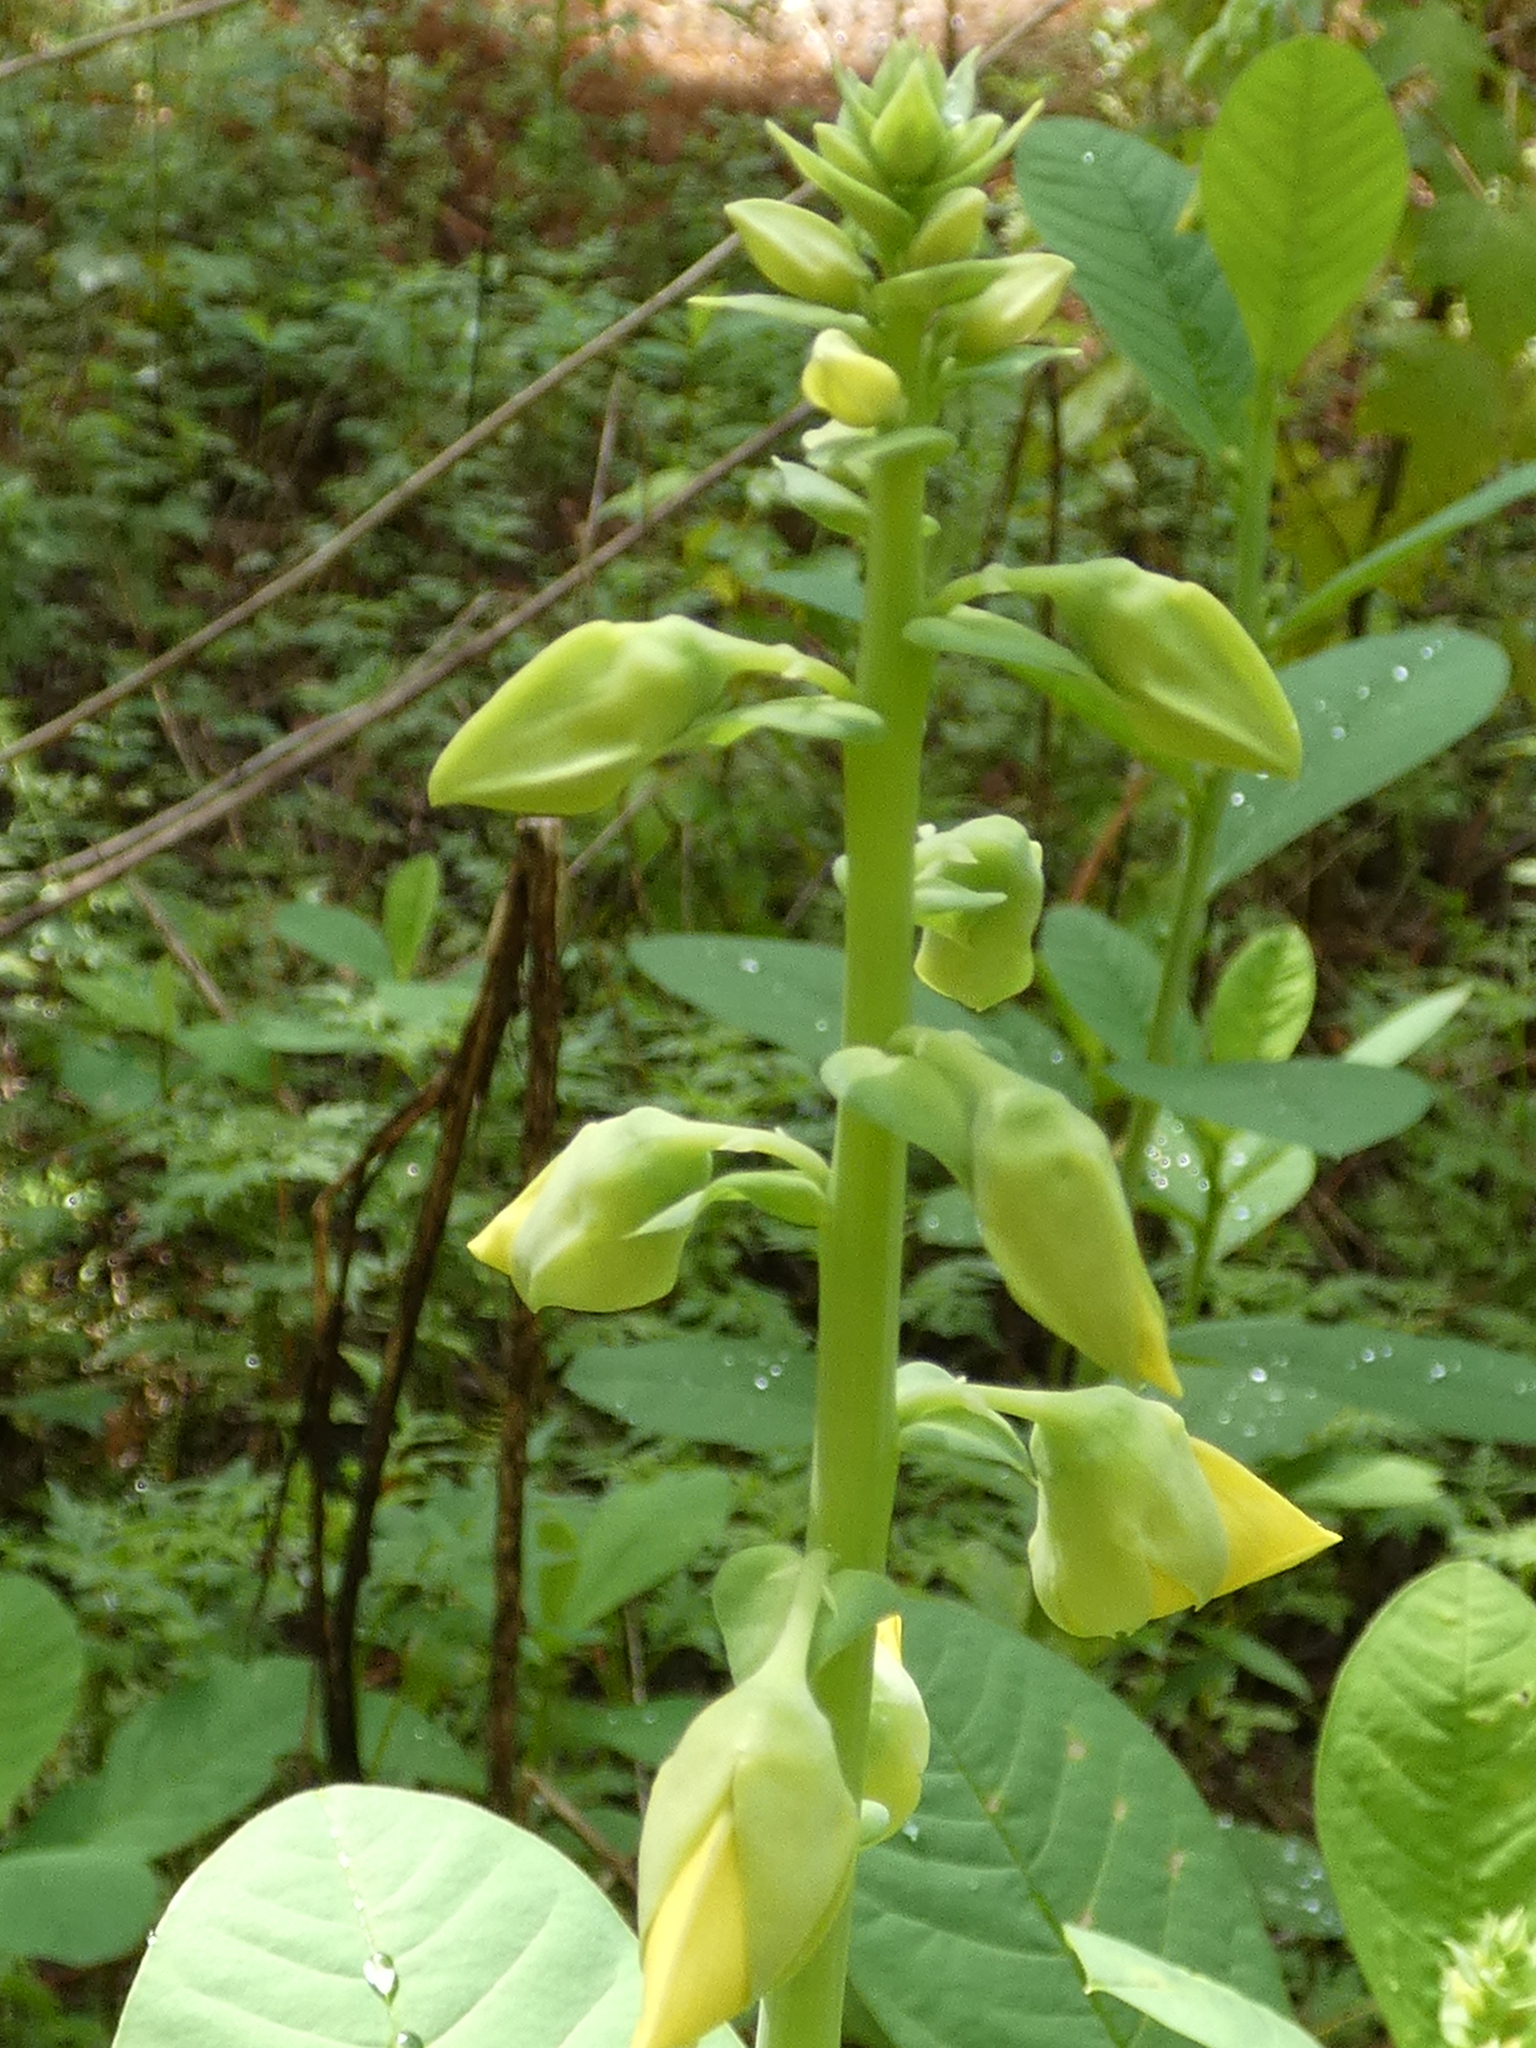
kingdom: Plantae
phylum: Tracheophyta
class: Magnoliopsida
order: Fabales
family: Fabaceae
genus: Crotalaria
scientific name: Crotalaria spectabilis
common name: Showy rattlebox
